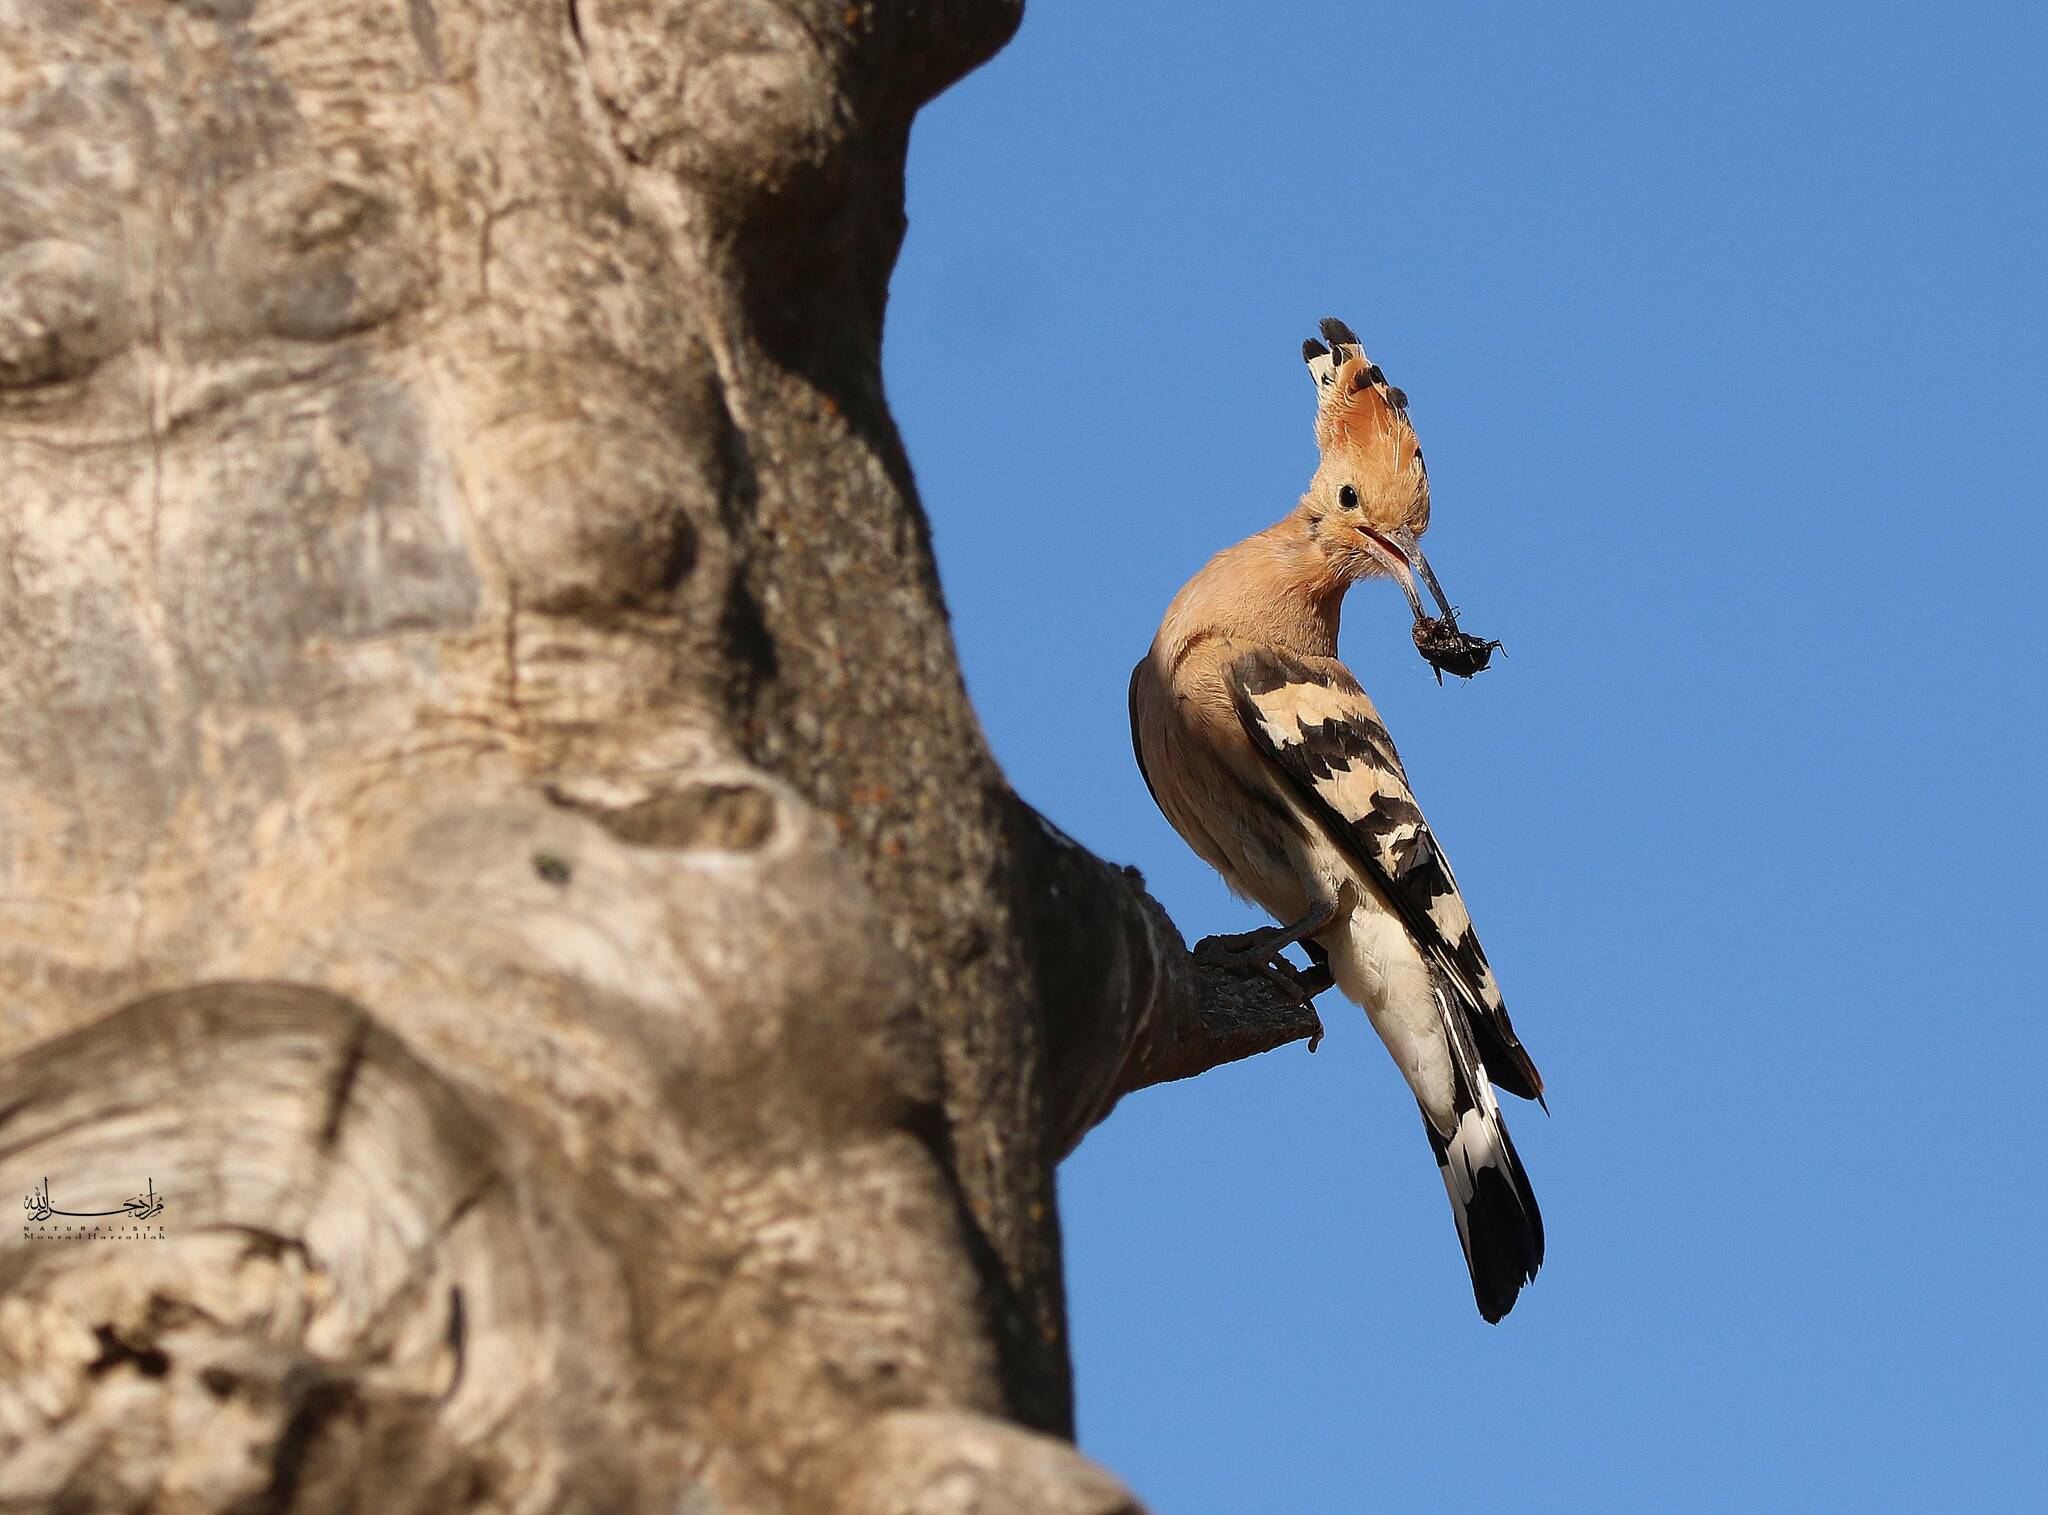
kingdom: Animalia
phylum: Chordata
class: Aves
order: Bucerotiformes
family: Upupidae
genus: Upupa
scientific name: Upupa epops
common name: Eurasian hoopoe
